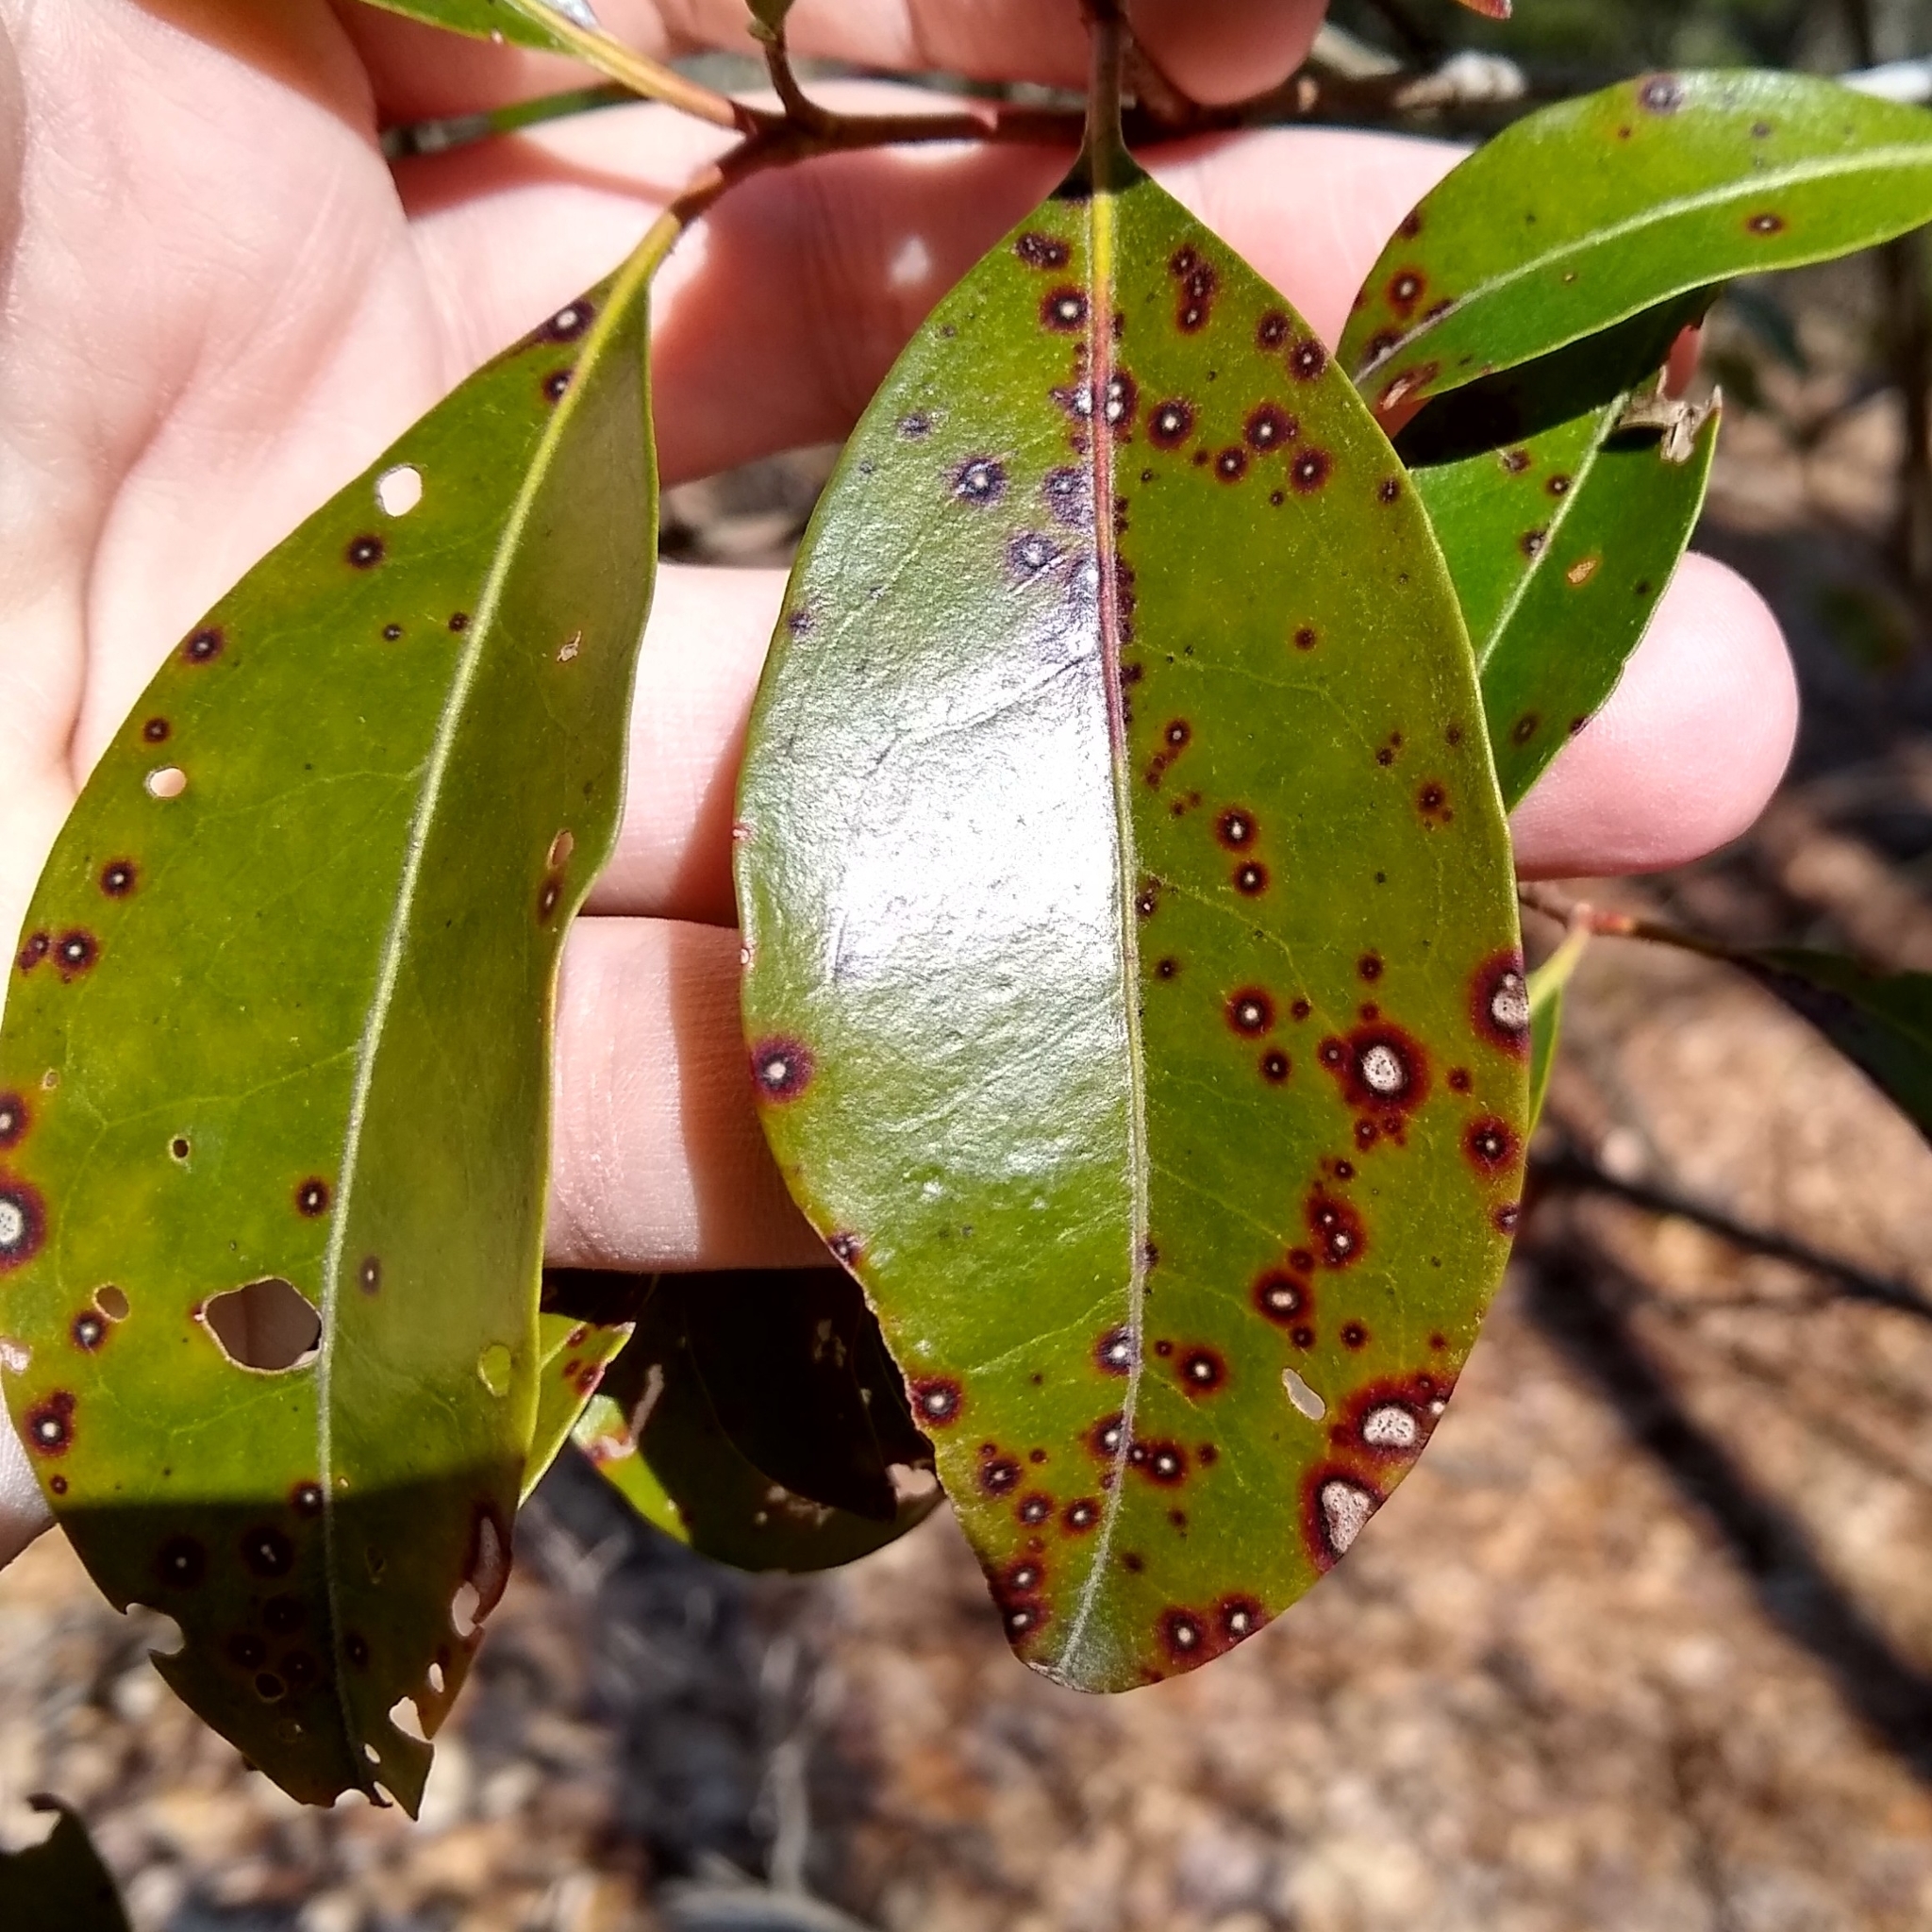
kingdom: Fungi
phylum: Ascomycota
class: Dothideomycetes
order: Mycosphaerellales
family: Mycosphaerellaceae
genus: Mycosphaerella
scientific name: Mycosphaerella colorata
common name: Mountain laurel leaf spot
